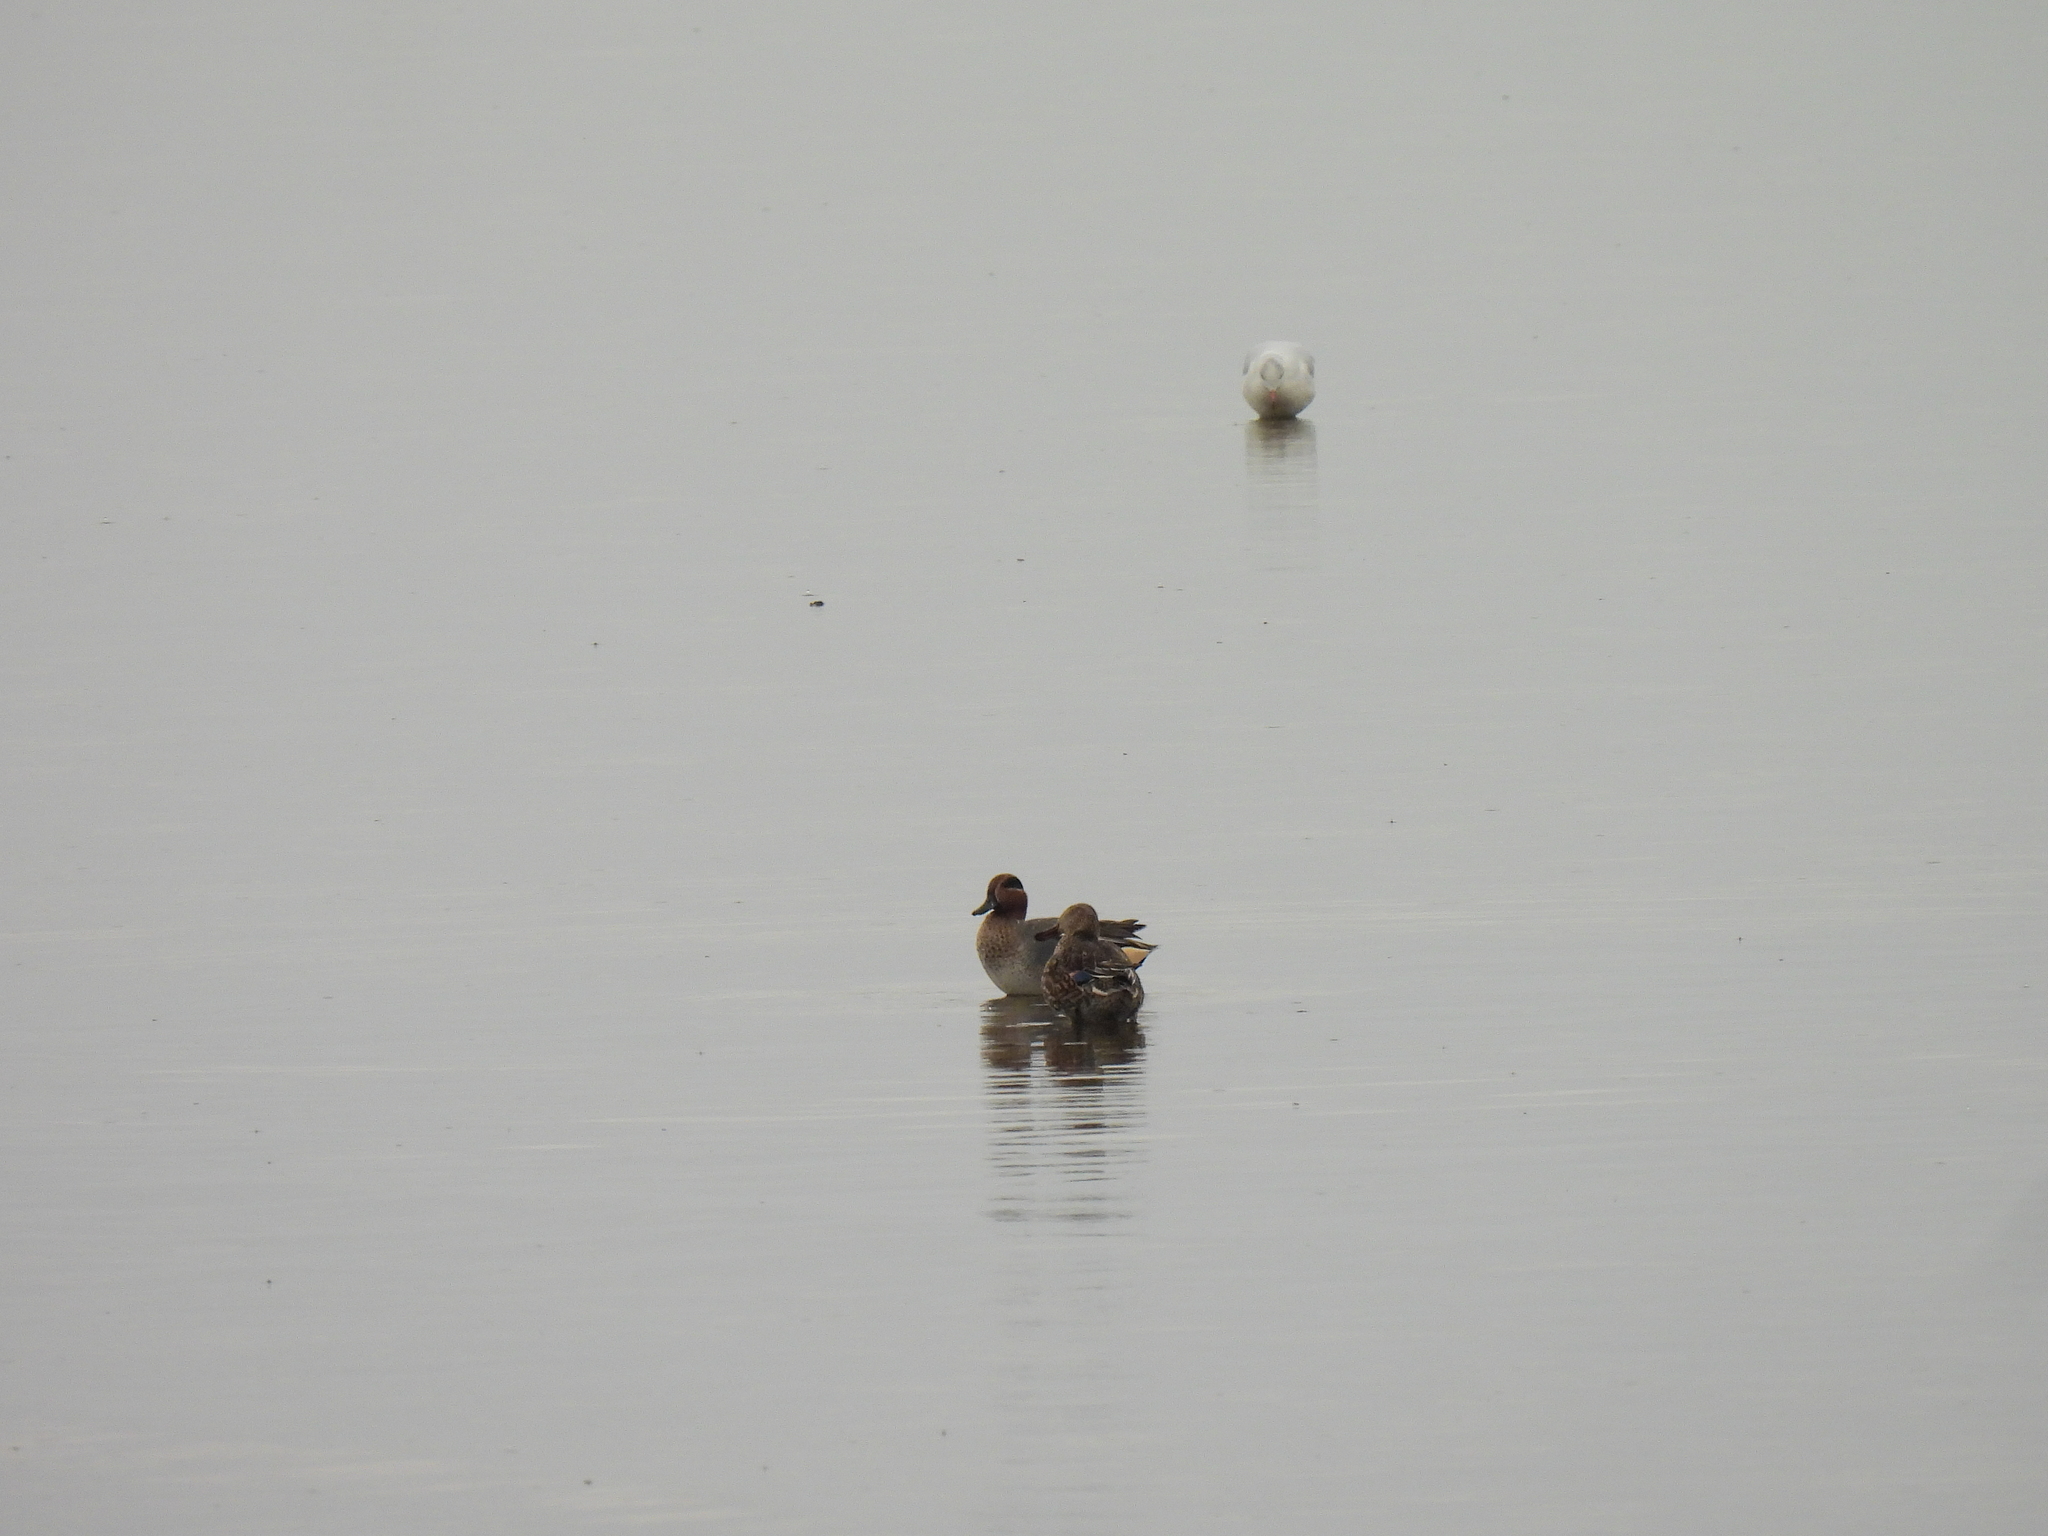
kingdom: Animalia
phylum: Chordata
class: Aves
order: Anseriformes
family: Anatidae
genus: Anas
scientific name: Anas crecca
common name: Eurasian teal
